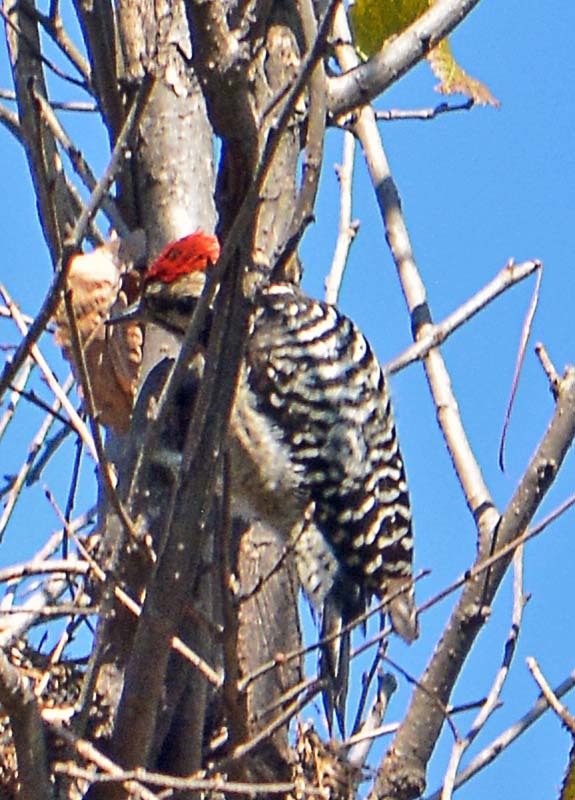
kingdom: Animalia
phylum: Chordata
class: Aves
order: Piciformes
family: Picidae
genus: Dryobates
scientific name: Dryobates scalaris
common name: Ladder-backed woodpecker
